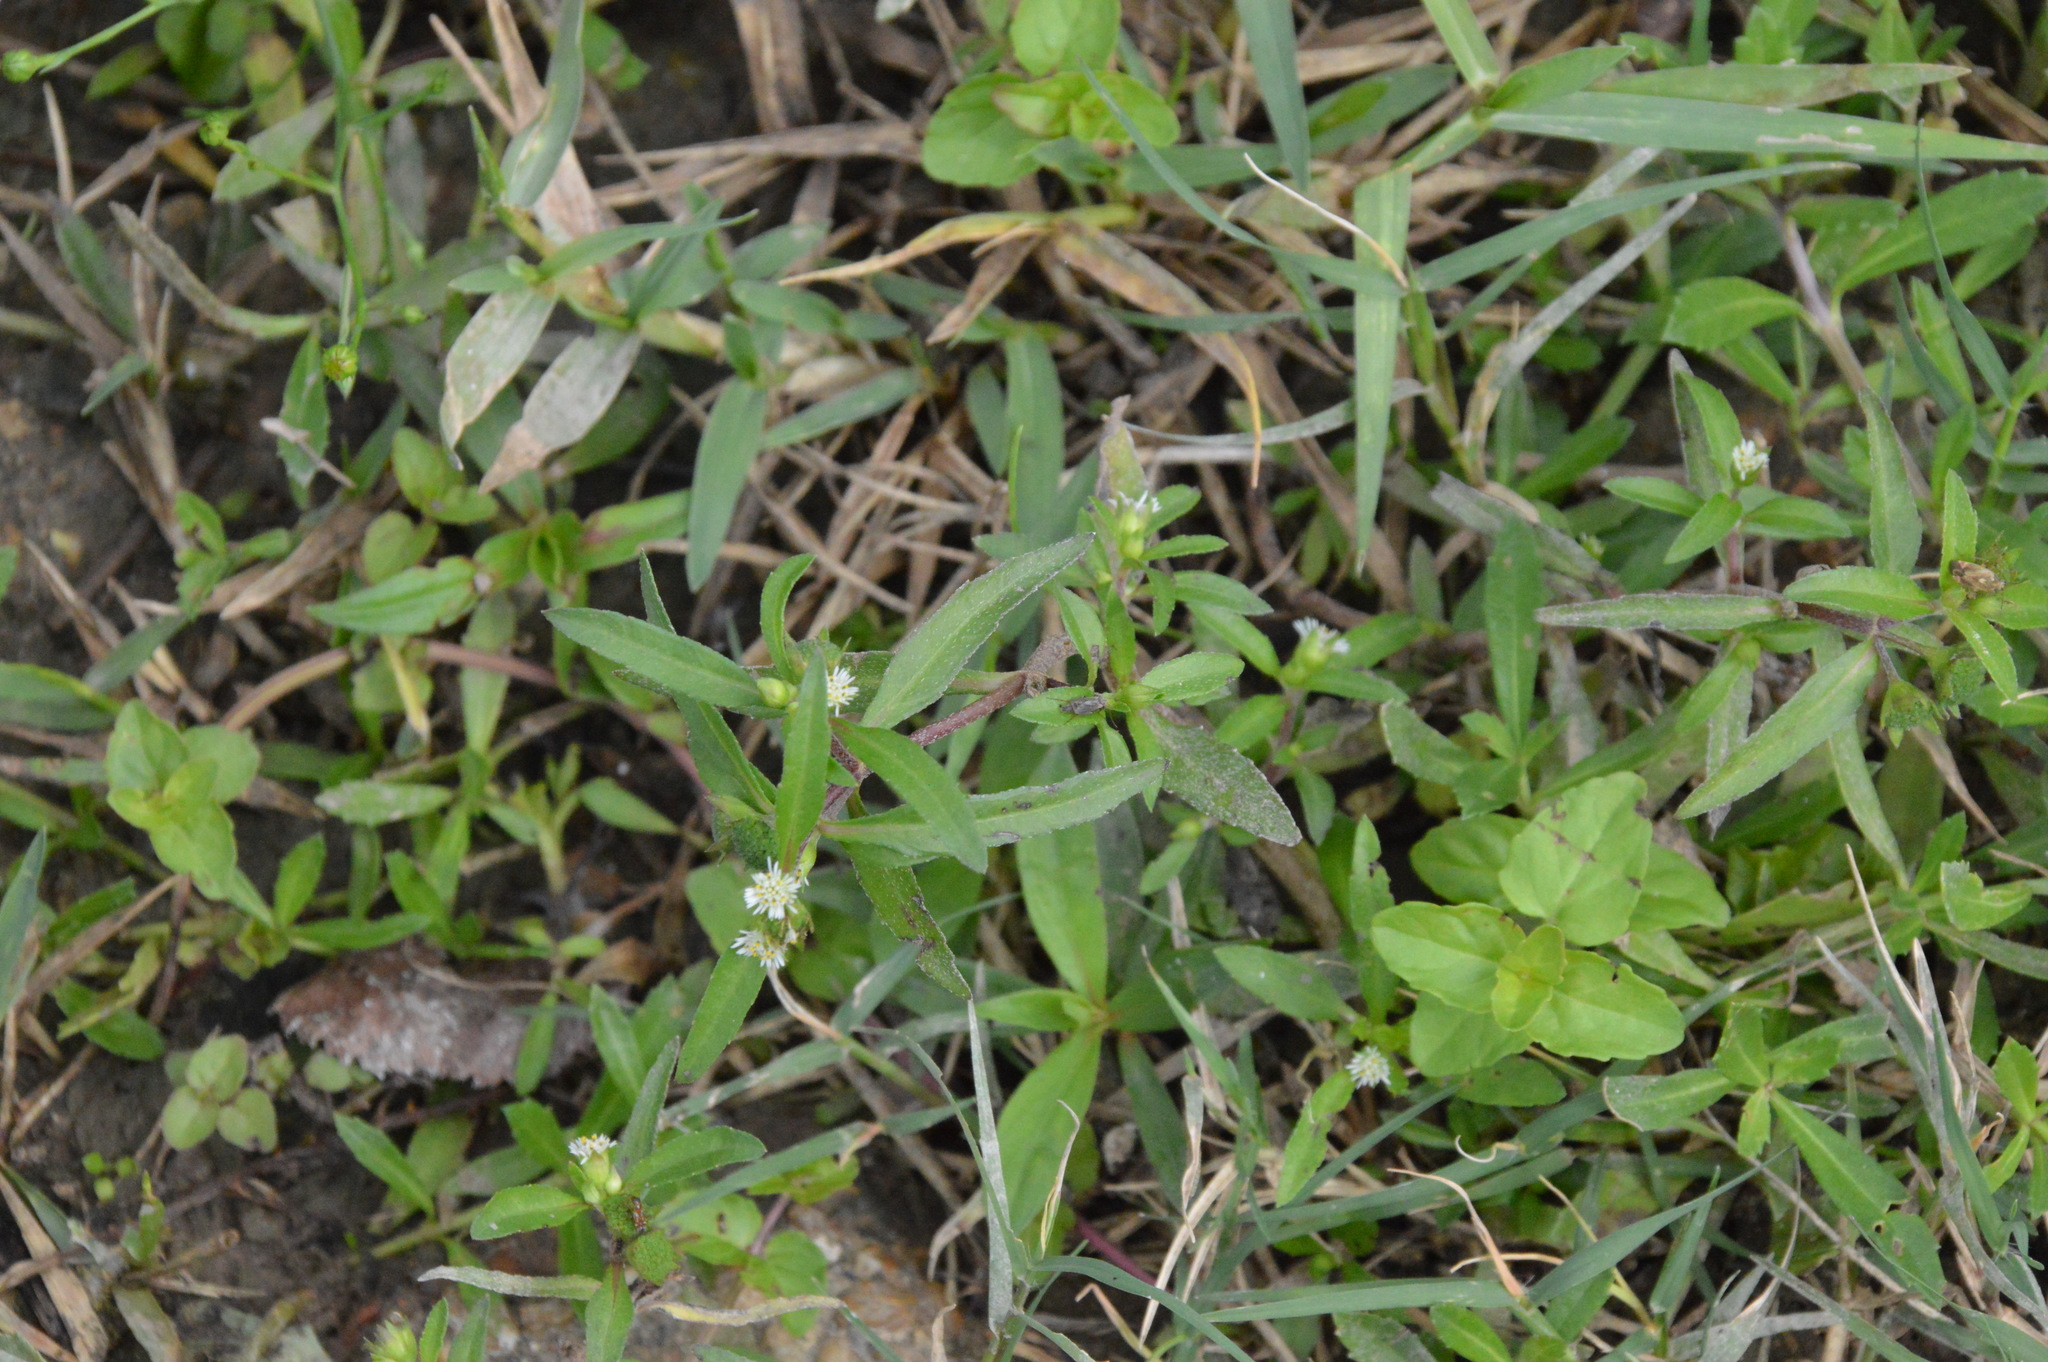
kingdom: Plantae
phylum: Tracheophyta
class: Magnoliopsida
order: Asterales
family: Asteraceae
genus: Eclipta
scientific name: Eclipta prostrata
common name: False daisy
